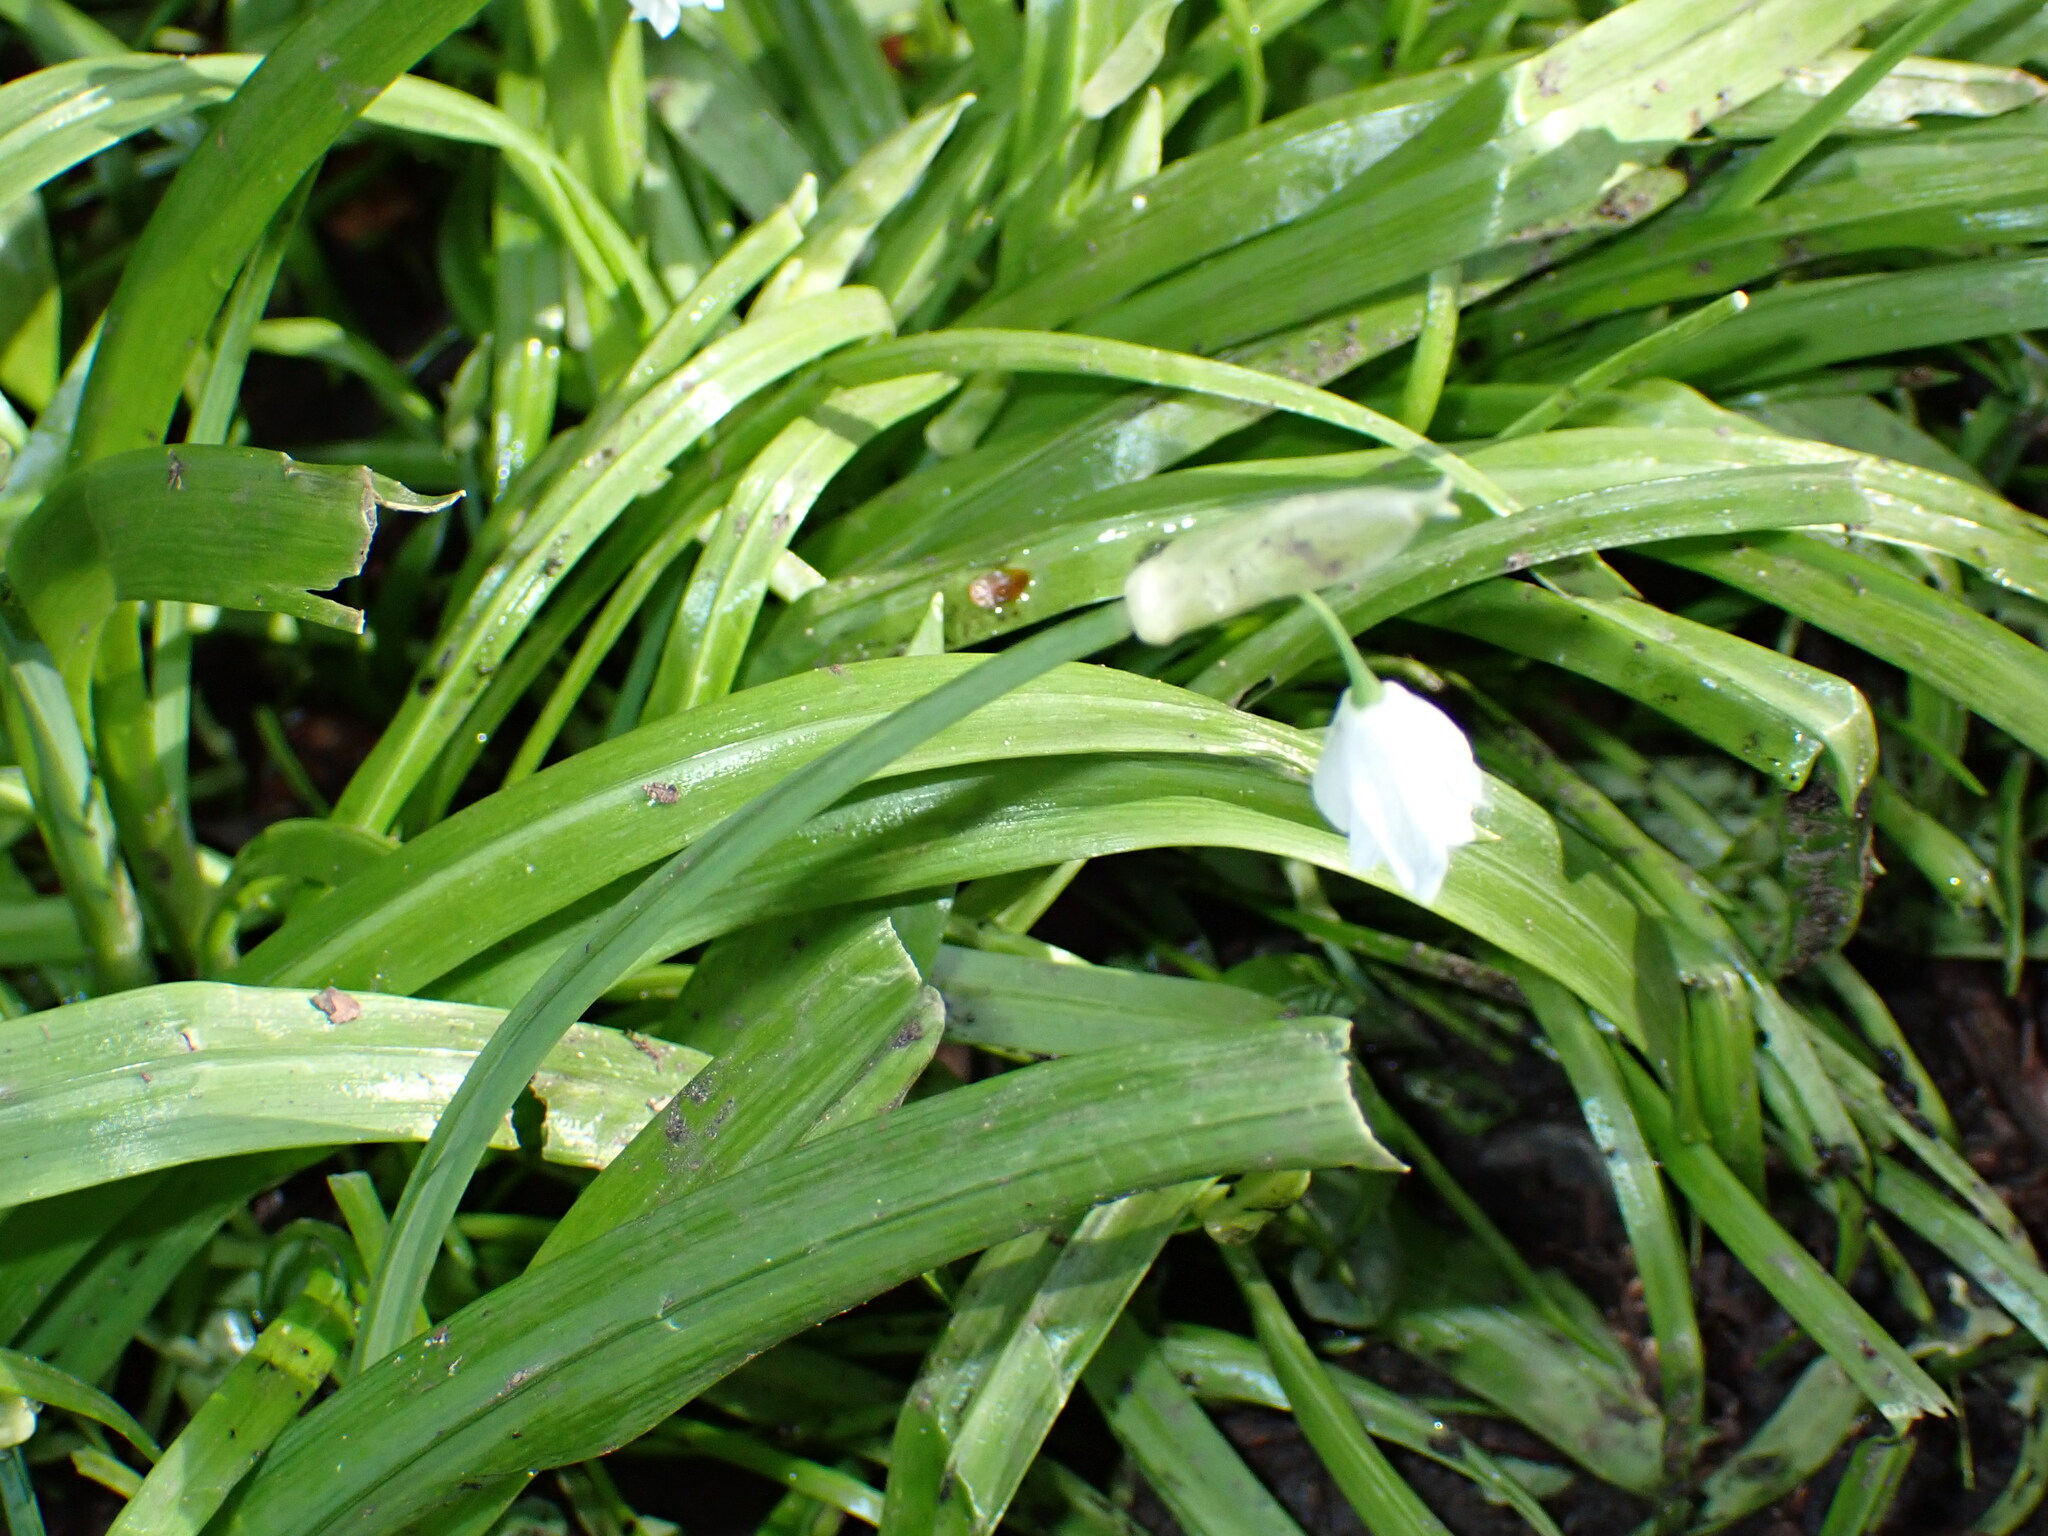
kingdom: Plantae
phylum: Tracheophyta
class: Liliopsida
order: Asparagales
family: Amaryllidaceae
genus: Allium
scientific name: Allium paradoxum
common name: Few-flowered garlic
